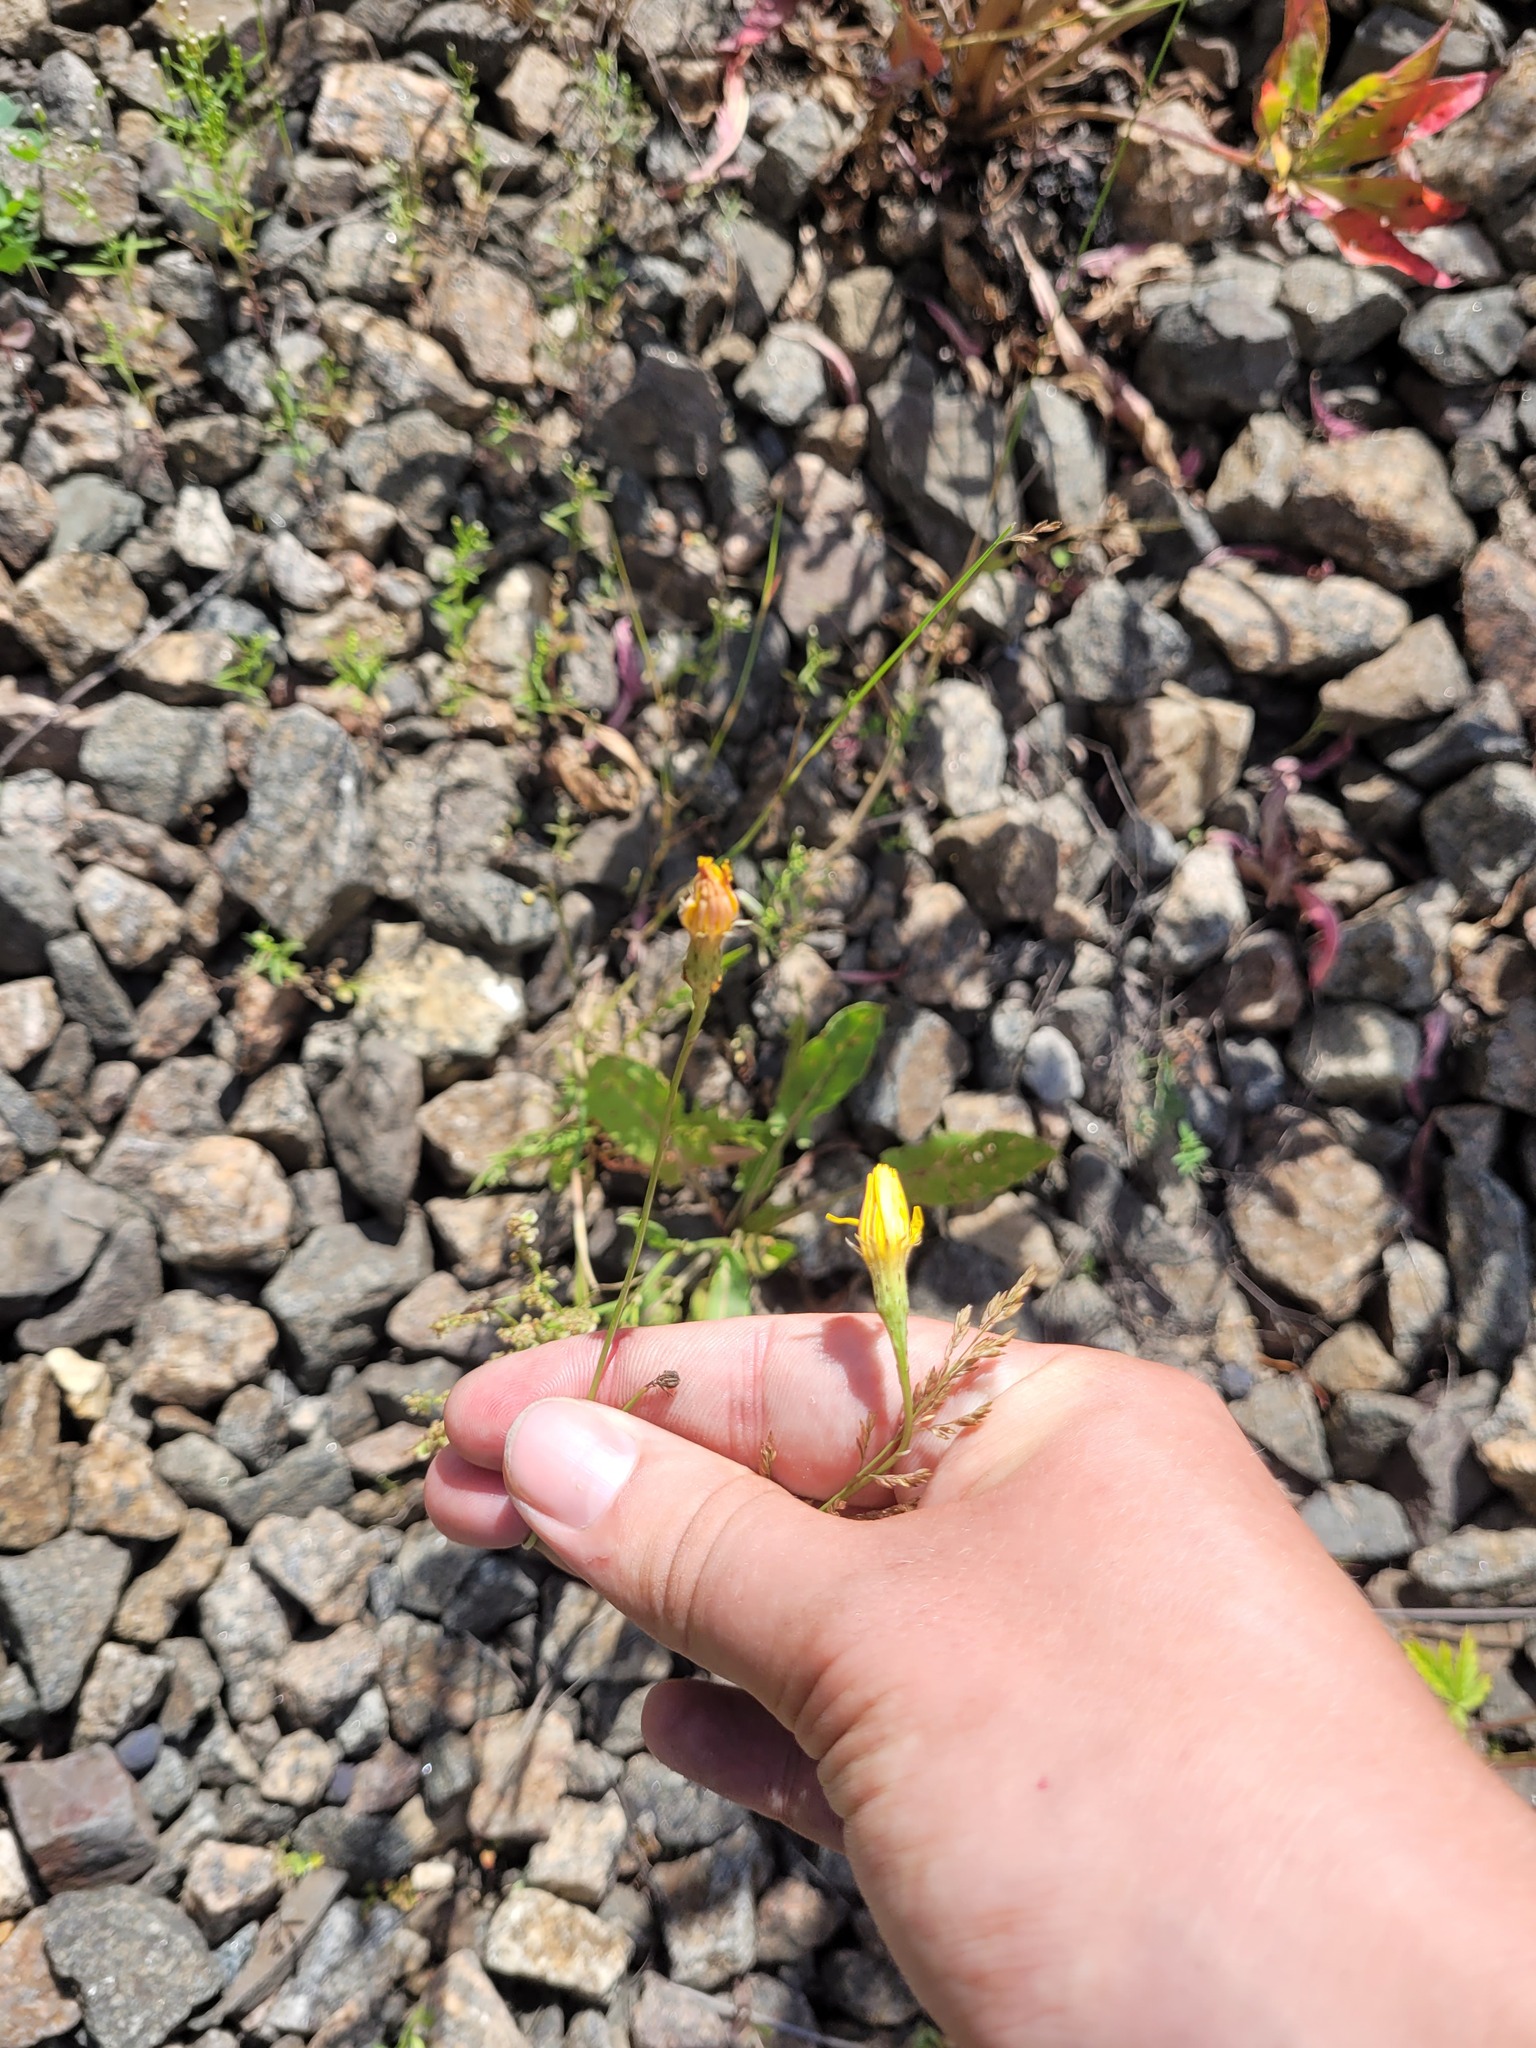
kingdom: Plantae
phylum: Tracheophyta
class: Magnoliopsida
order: Asterales
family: Asteraceae
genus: Scorzoneroides
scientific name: Scorzoneroides autumnalis
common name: Autumn hawkbit
